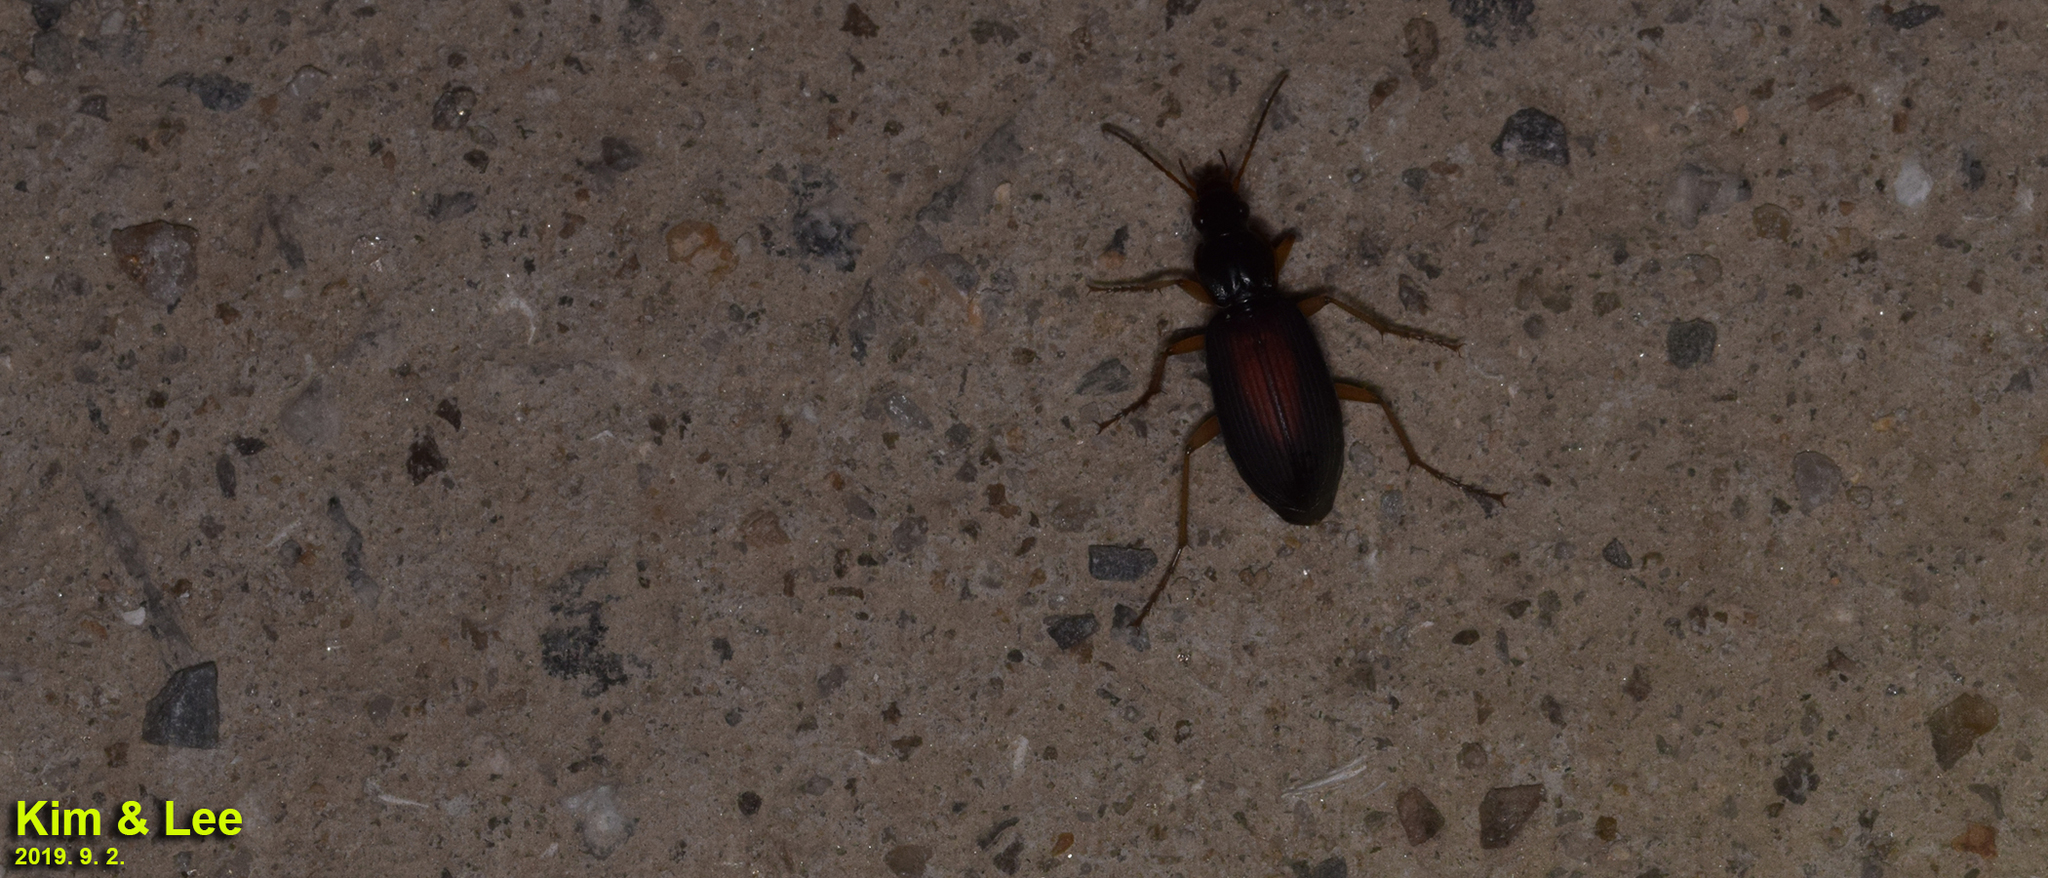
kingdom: Animalia
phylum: Arthropoda
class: Insecta
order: Coleoptera
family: Carabidae
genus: Dolichus
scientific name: Dolichus halensis
